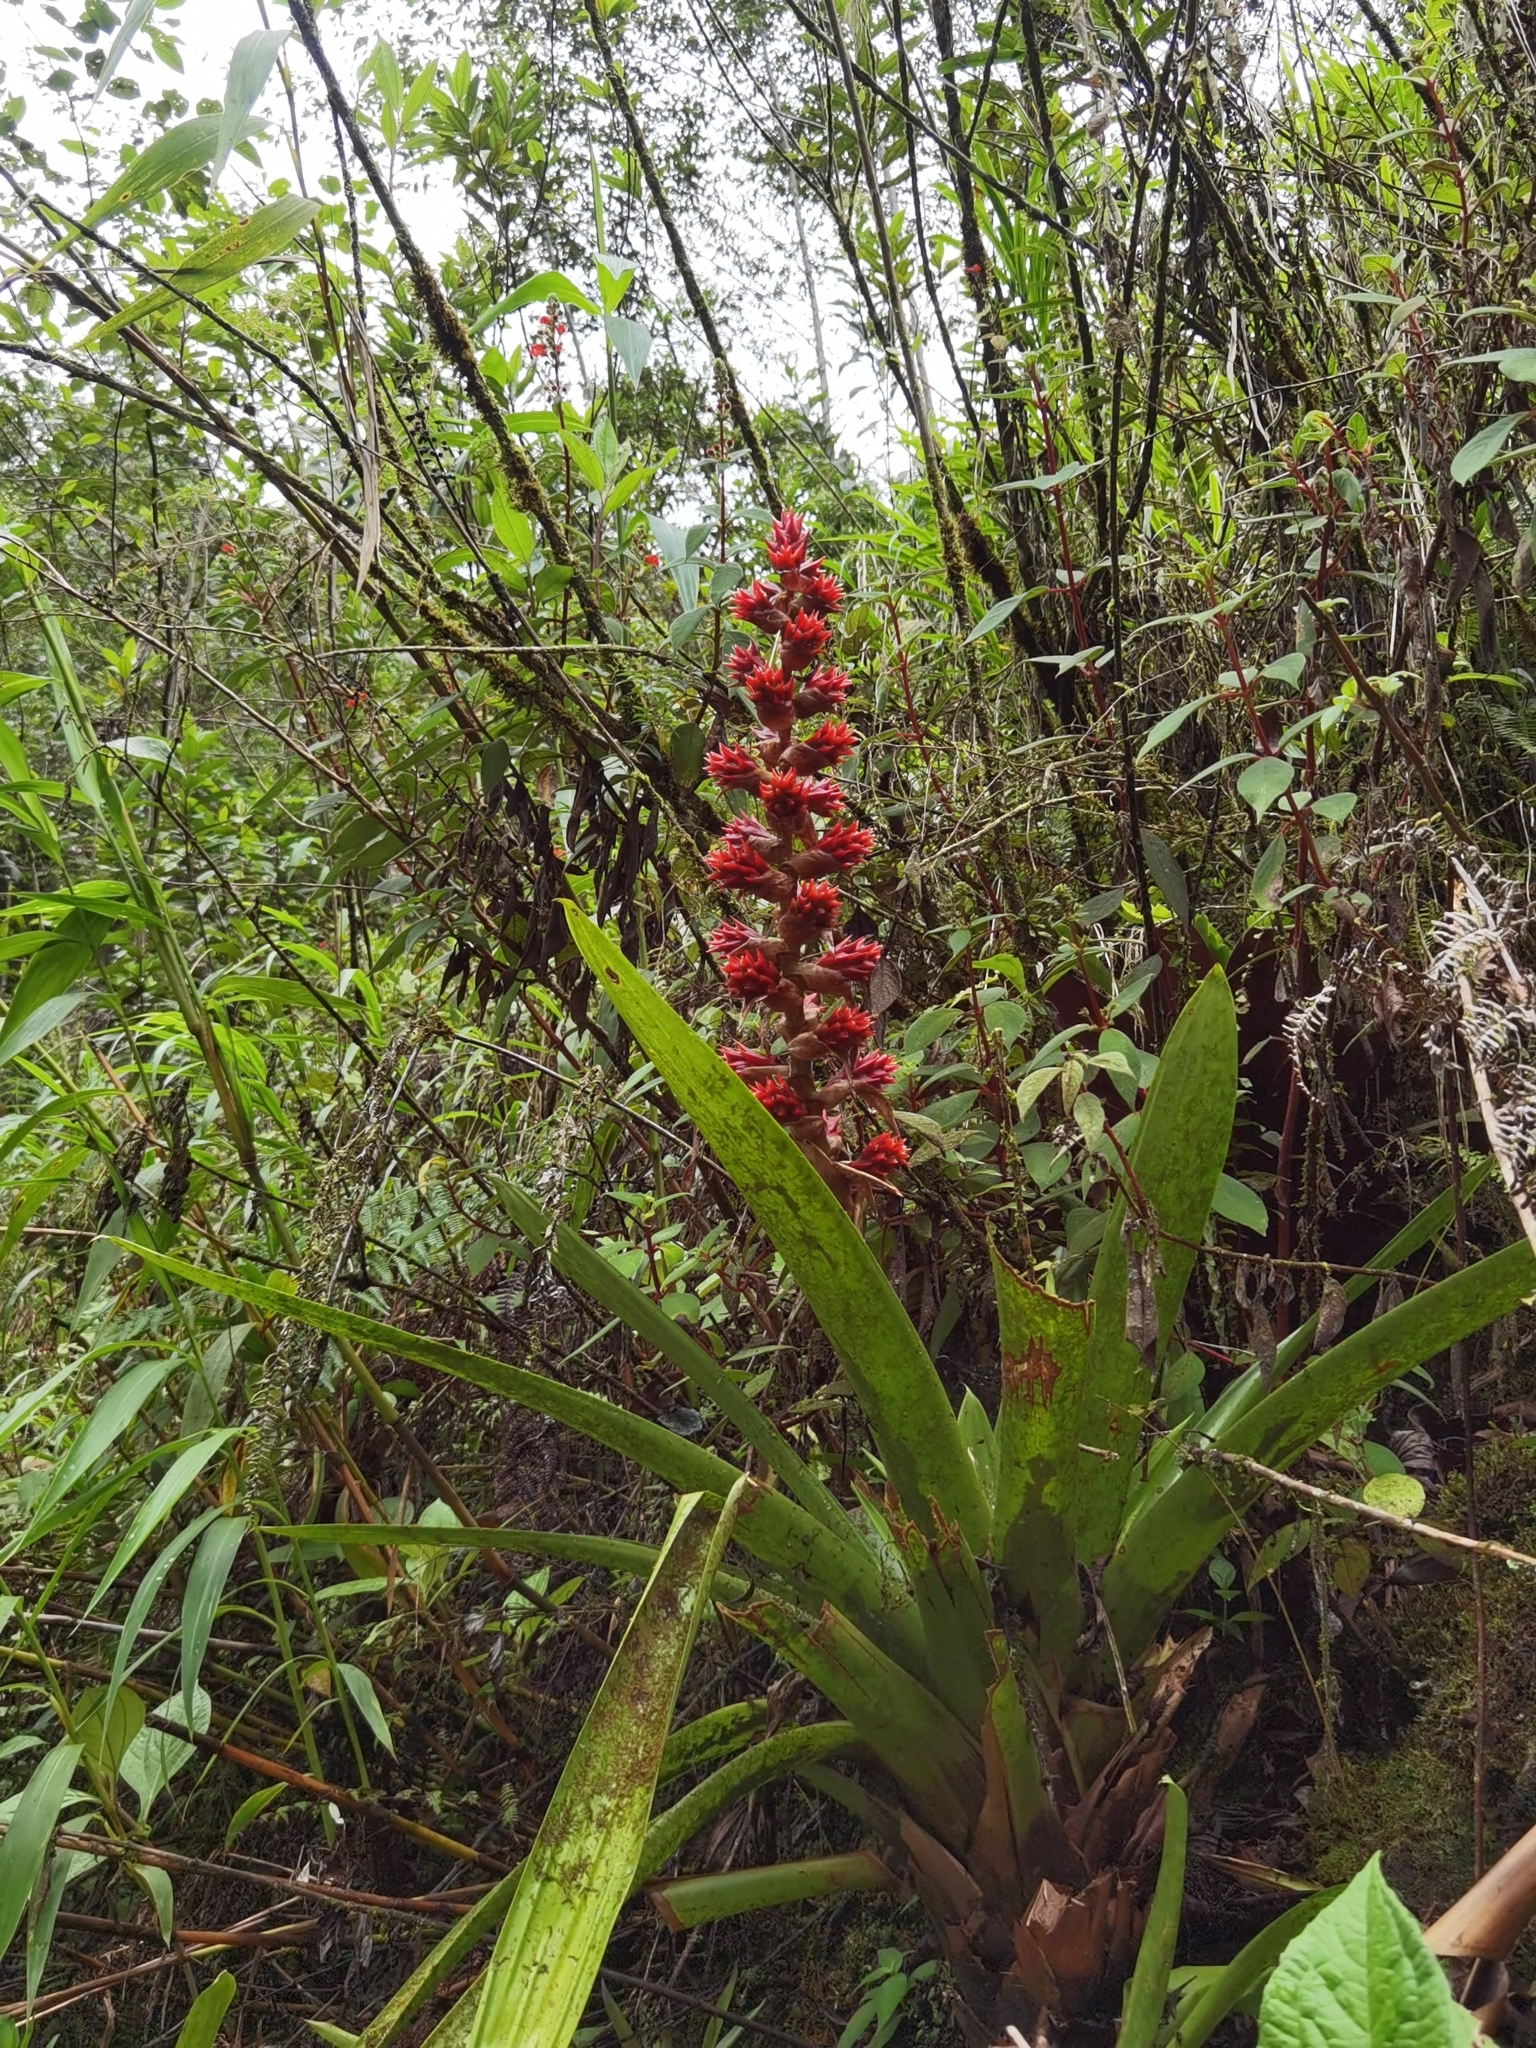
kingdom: Plantae
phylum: Tracheophyta
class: Liliopsida
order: Poales
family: Bromeliaceae
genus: Vriesea
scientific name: Vriesea pleiosticha
